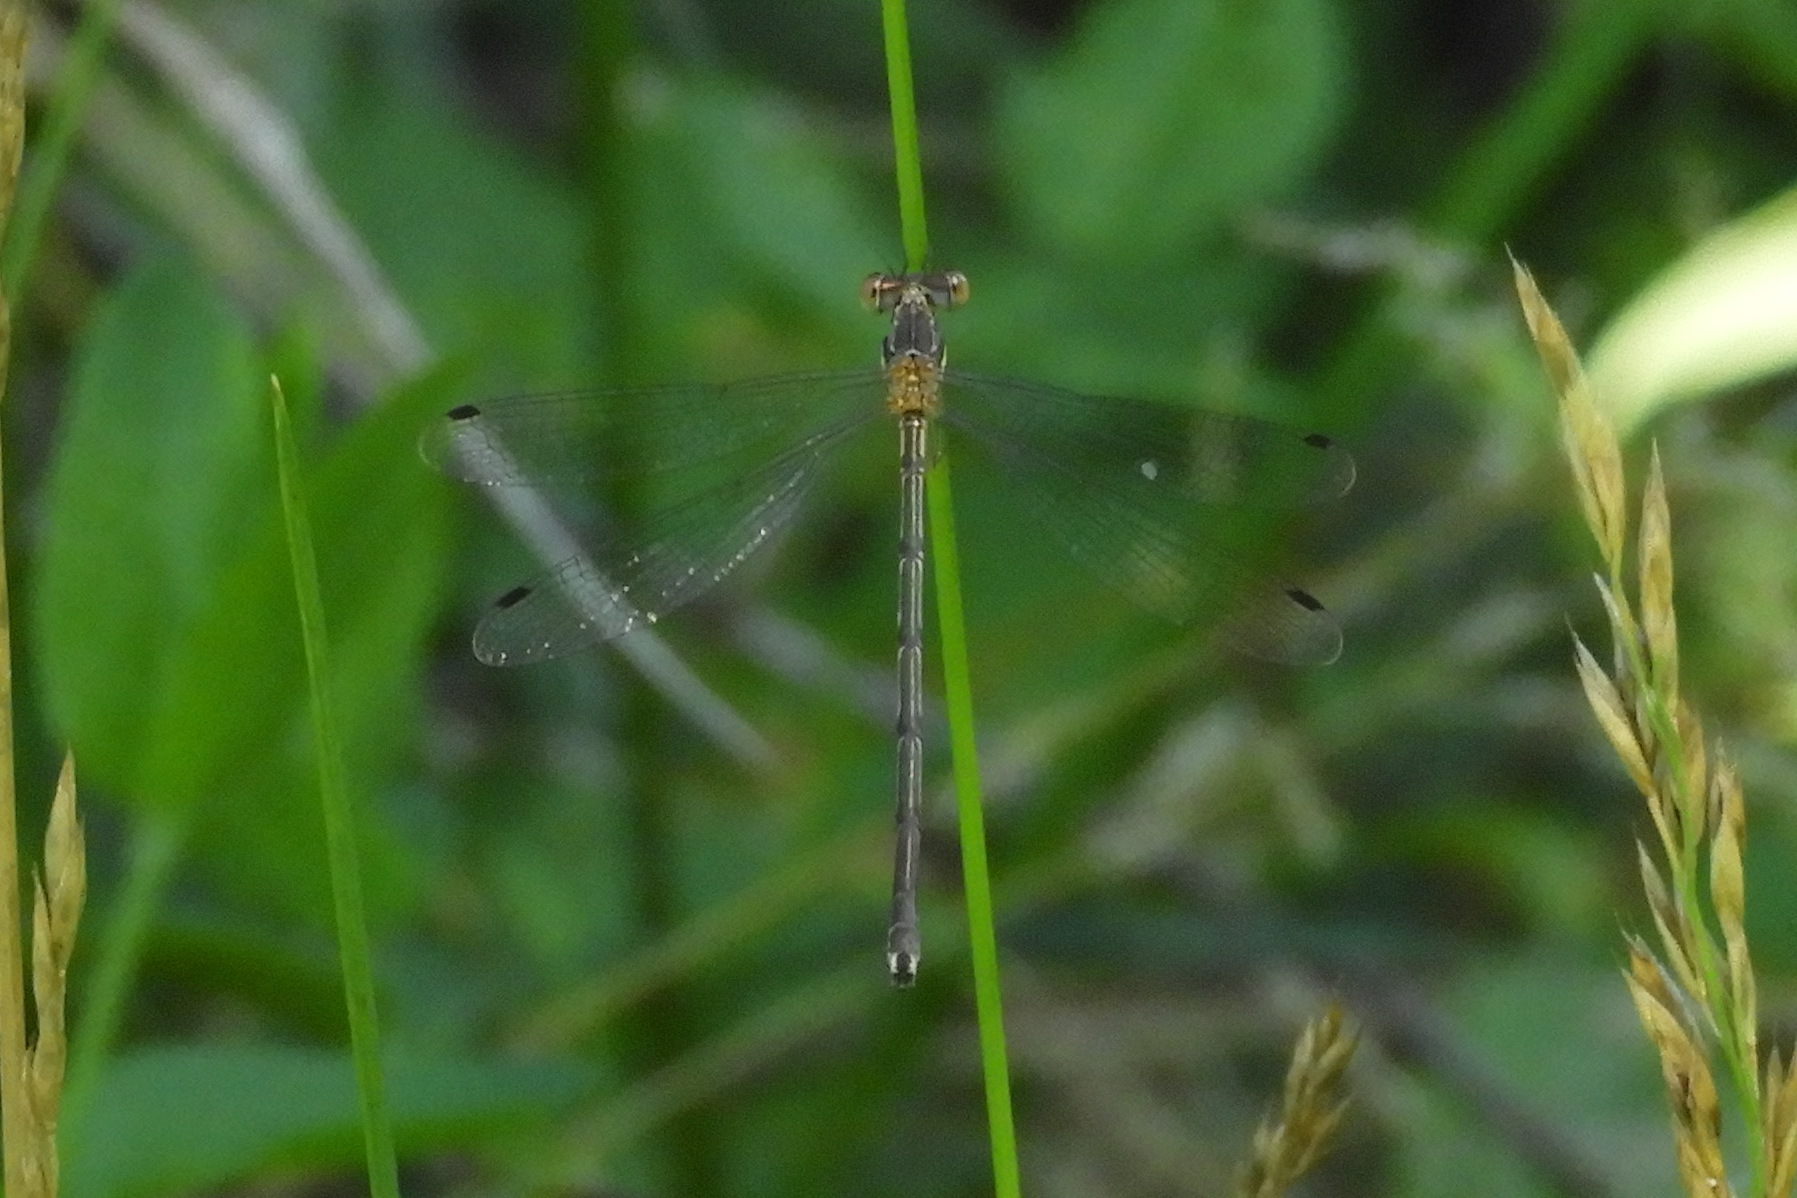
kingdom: Animalia
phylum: Arthropoda
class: Insecta
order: Odonata
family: Lestidae
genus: Lestes
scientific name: Lestes rectangularis
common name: Slender spreadwing
